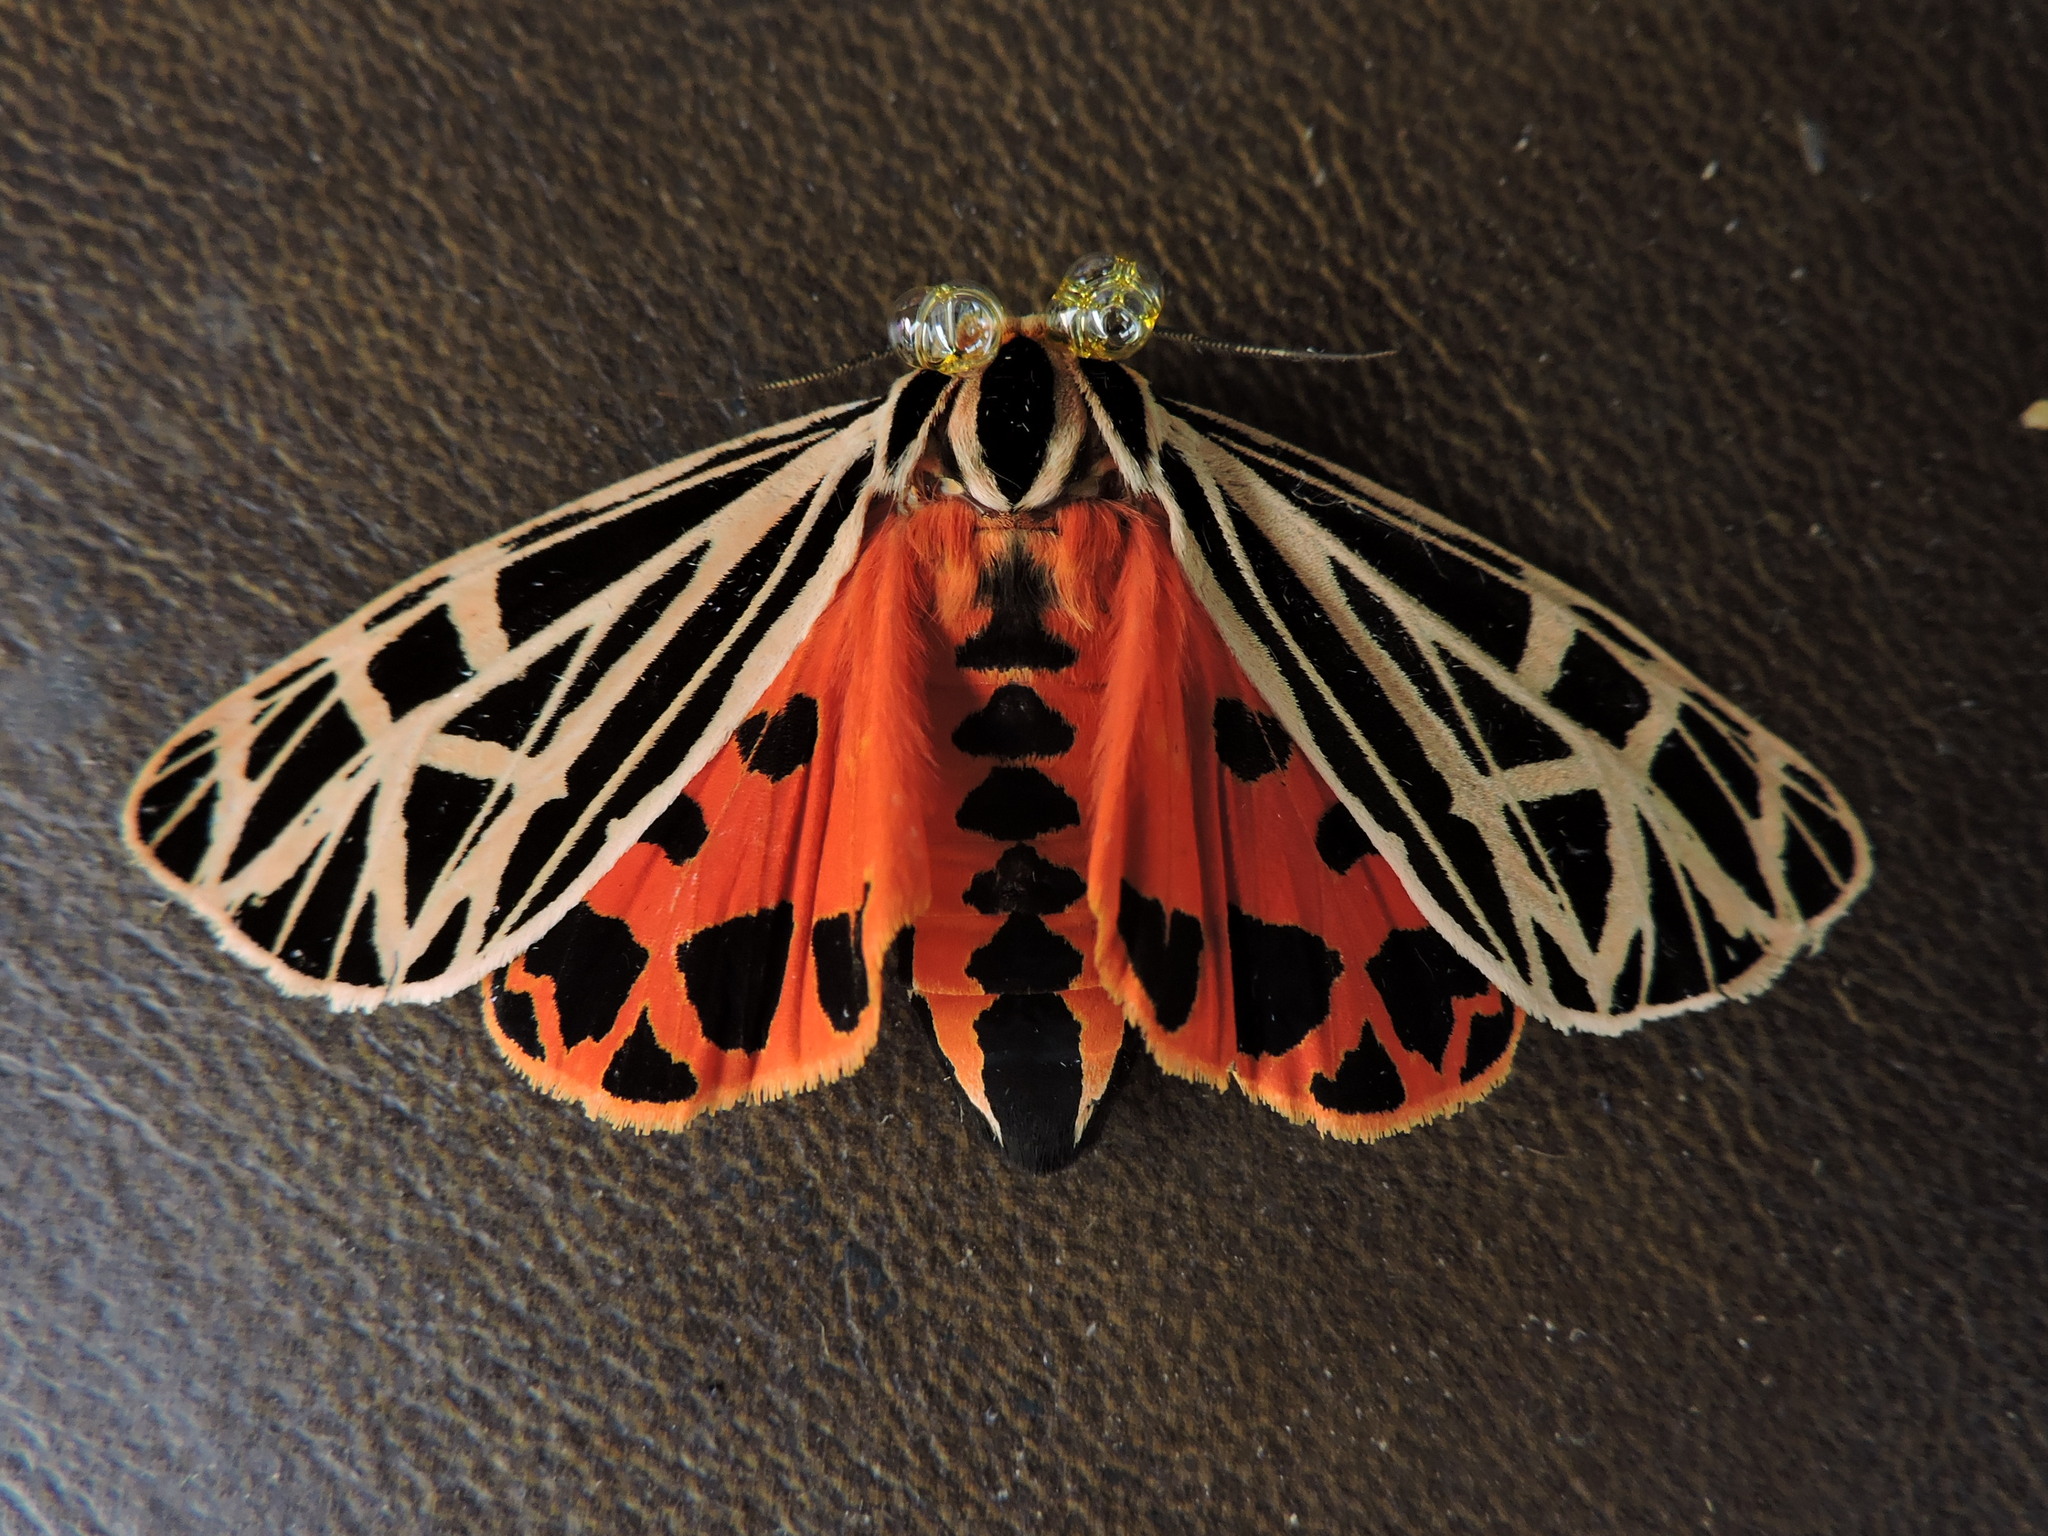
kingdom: Animalia
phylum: Arthropoda
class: Insecta
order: Lepidoptera
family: Erebidae
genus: Grammia
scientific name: Grammia virgo
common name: Virgin tiger moth
